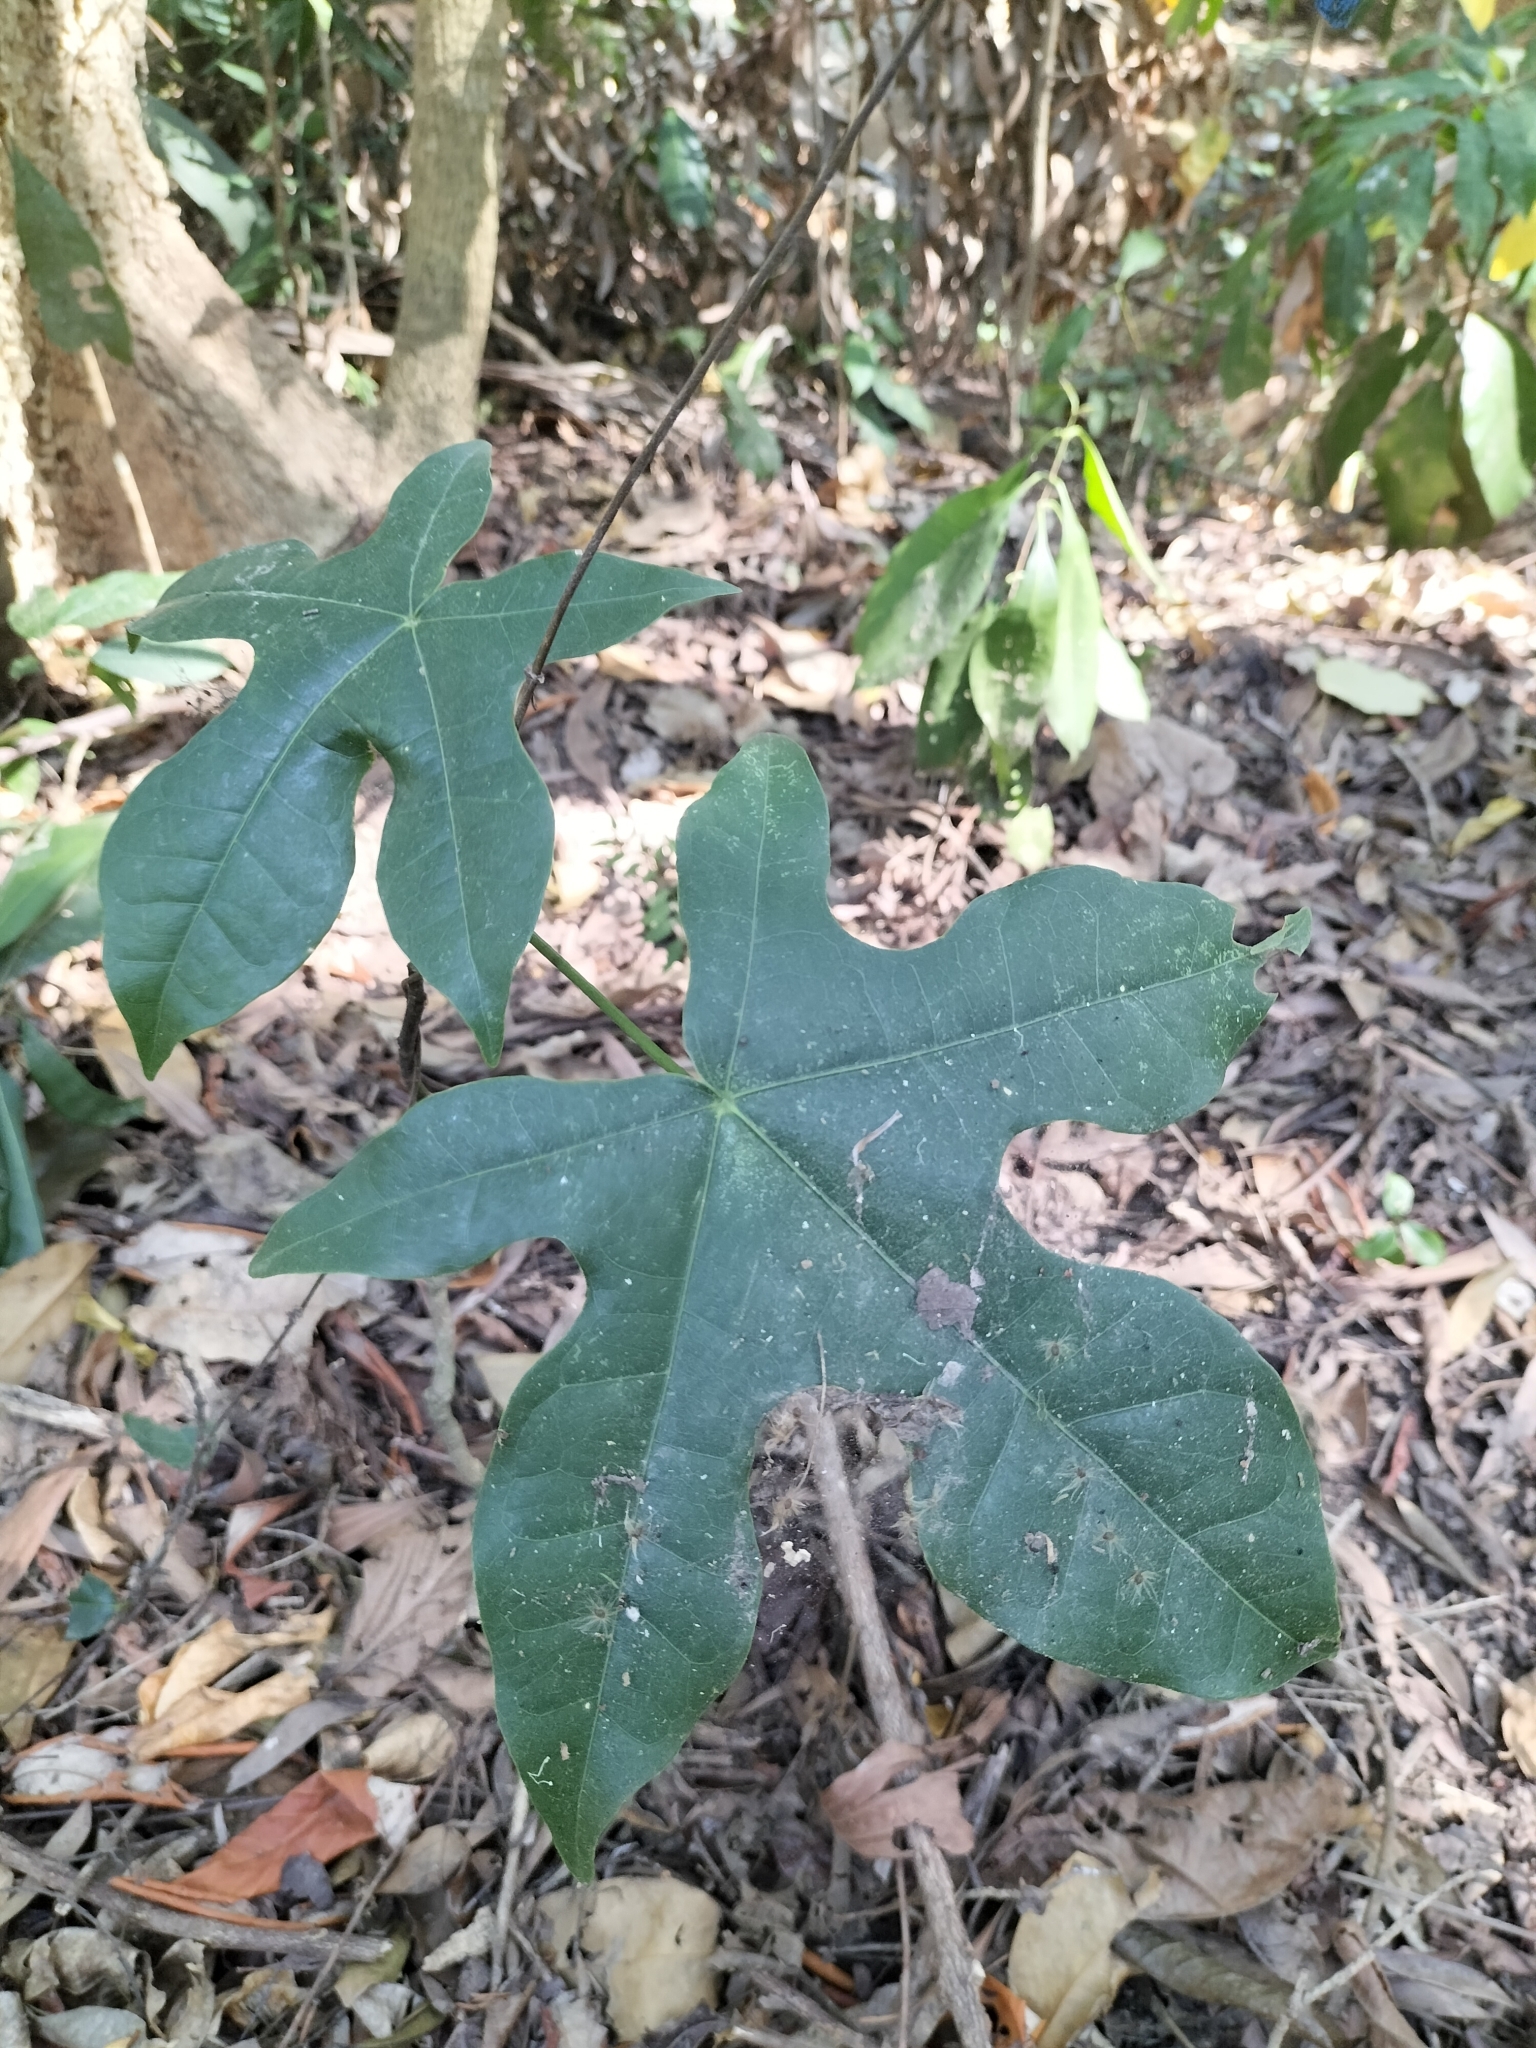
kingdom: Plantae
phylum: Tracheophyta
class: Magnoliopsida
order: Malvales
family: Malvaceae
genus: Brachychiton
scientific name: Brachychiton acerifolius
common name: Illawarra flame tree
